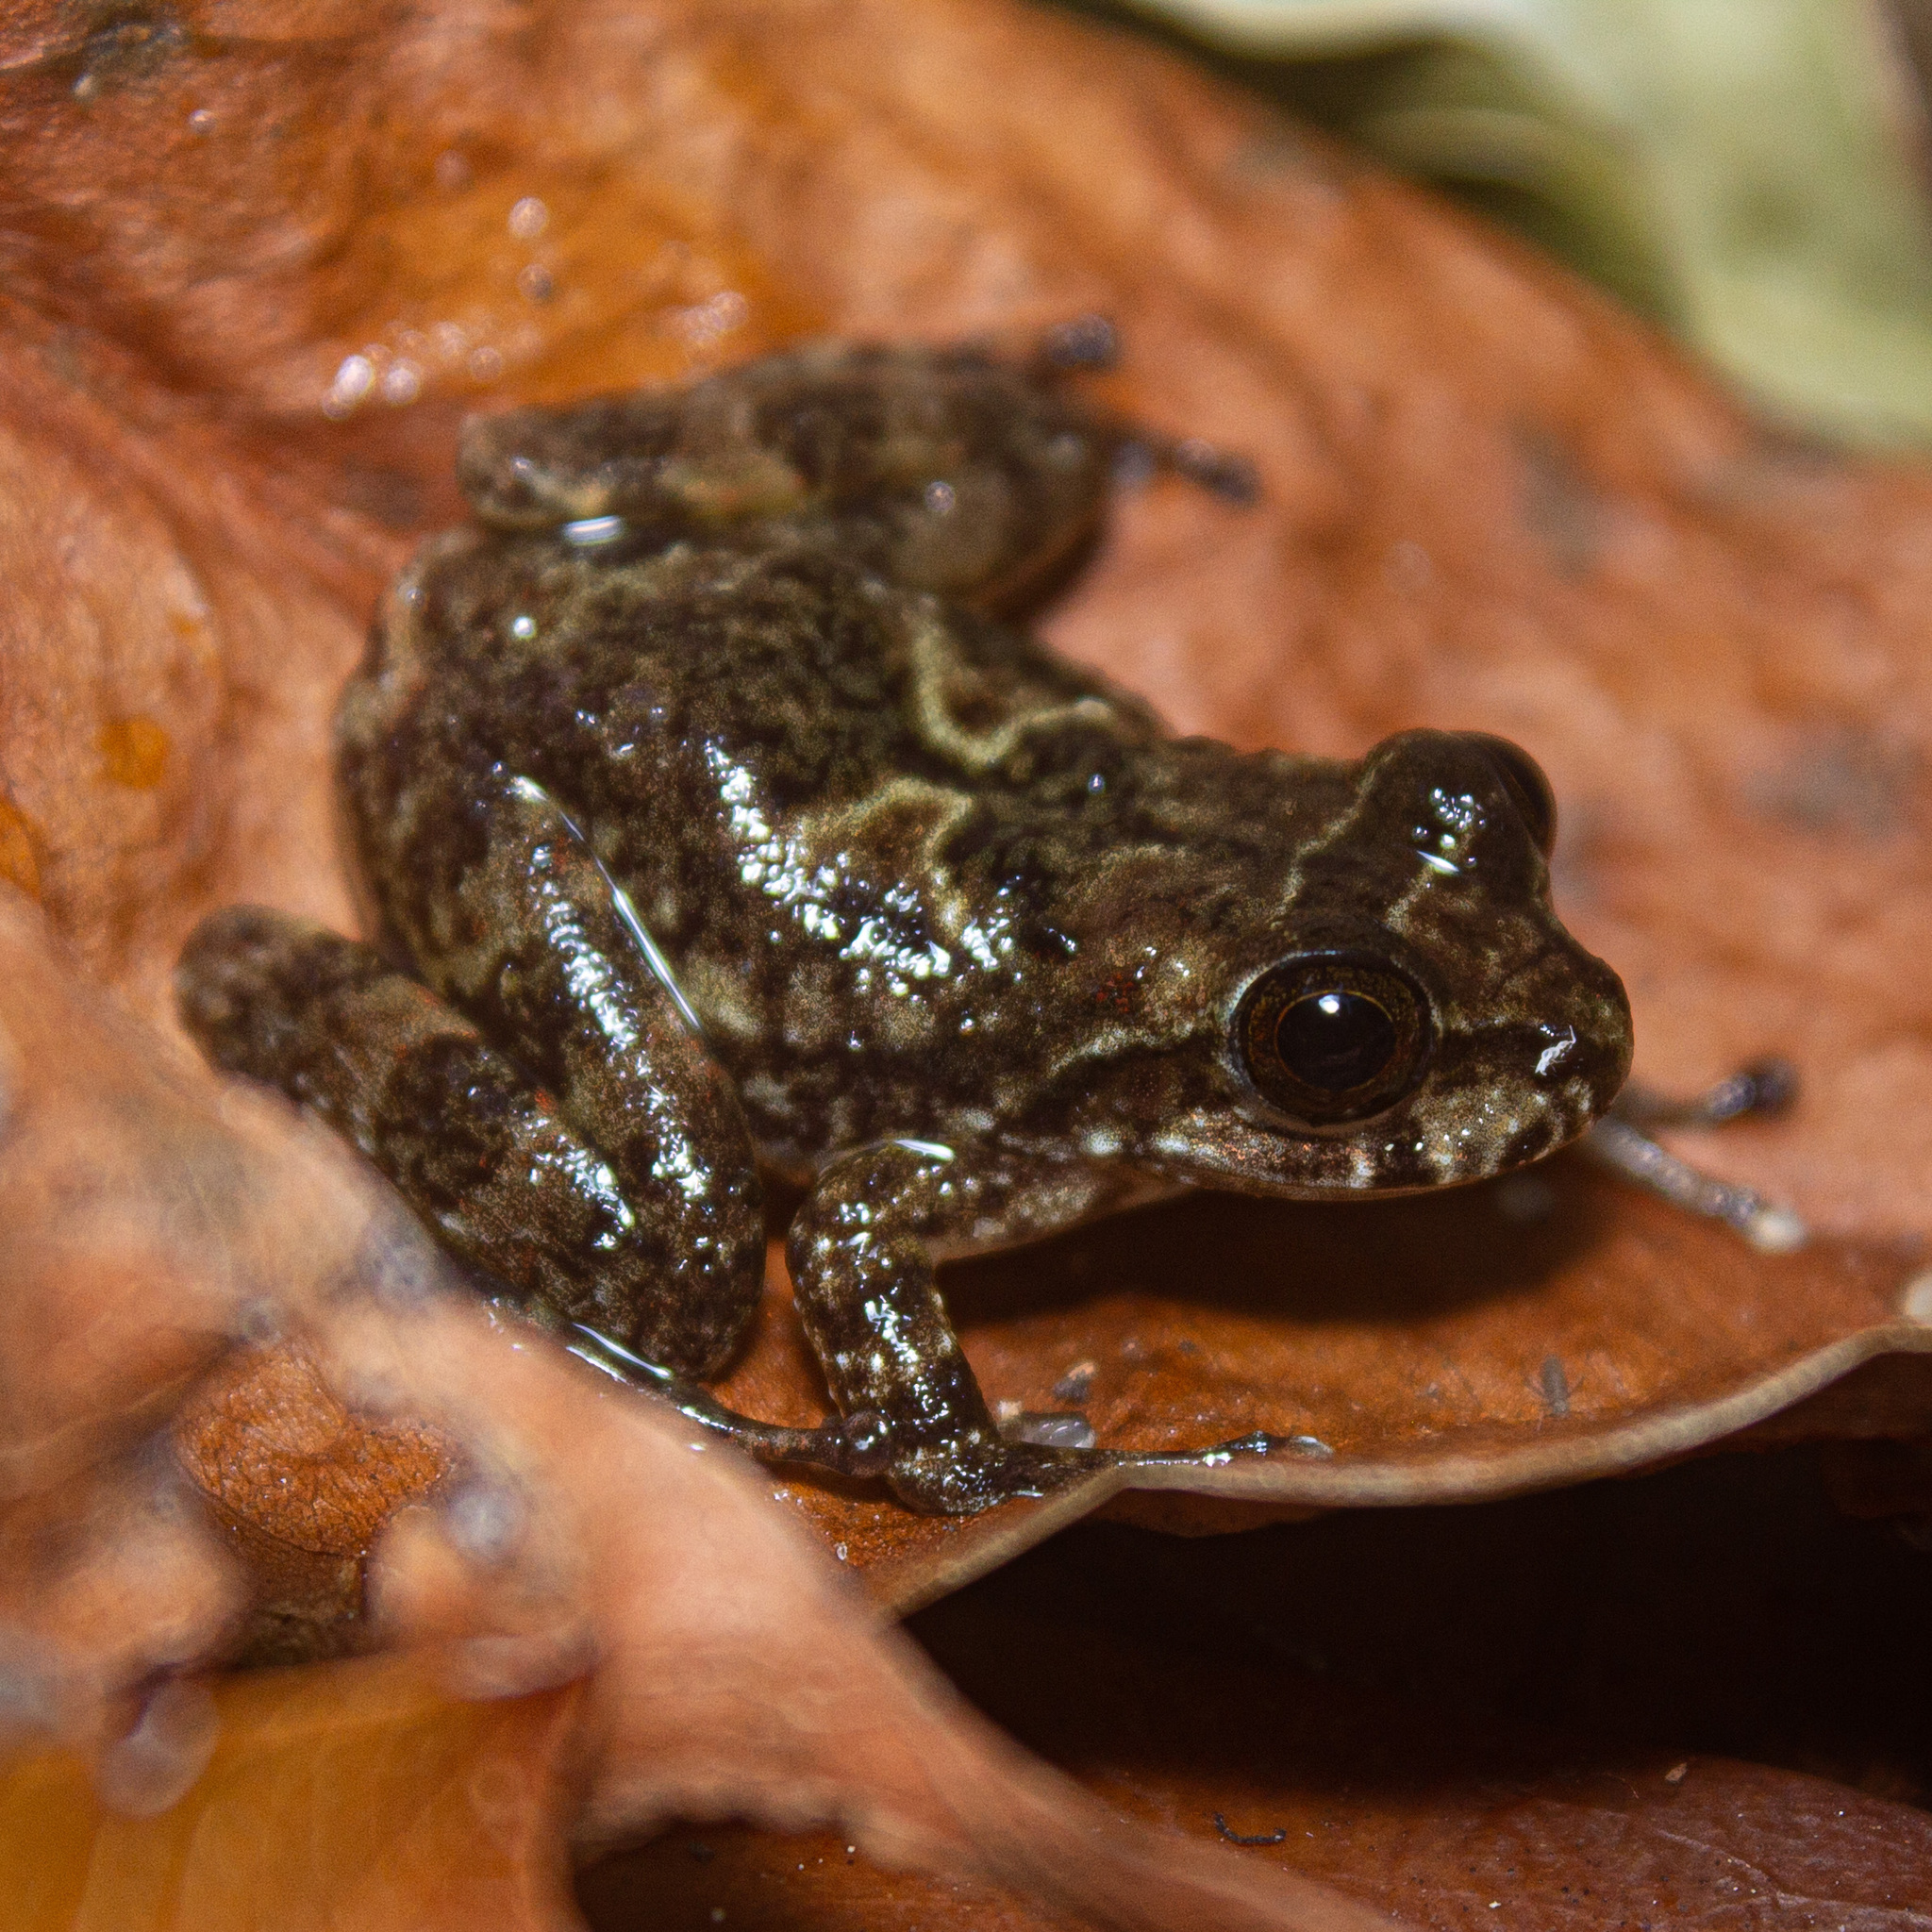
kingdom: Animalia
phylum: Chordata
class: Amphibia
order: Anura
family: Hemiphractidae
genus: Cryptobatrachus
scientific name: Cryptobatrachus boulengeri
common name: Boulenger's backpack frog
